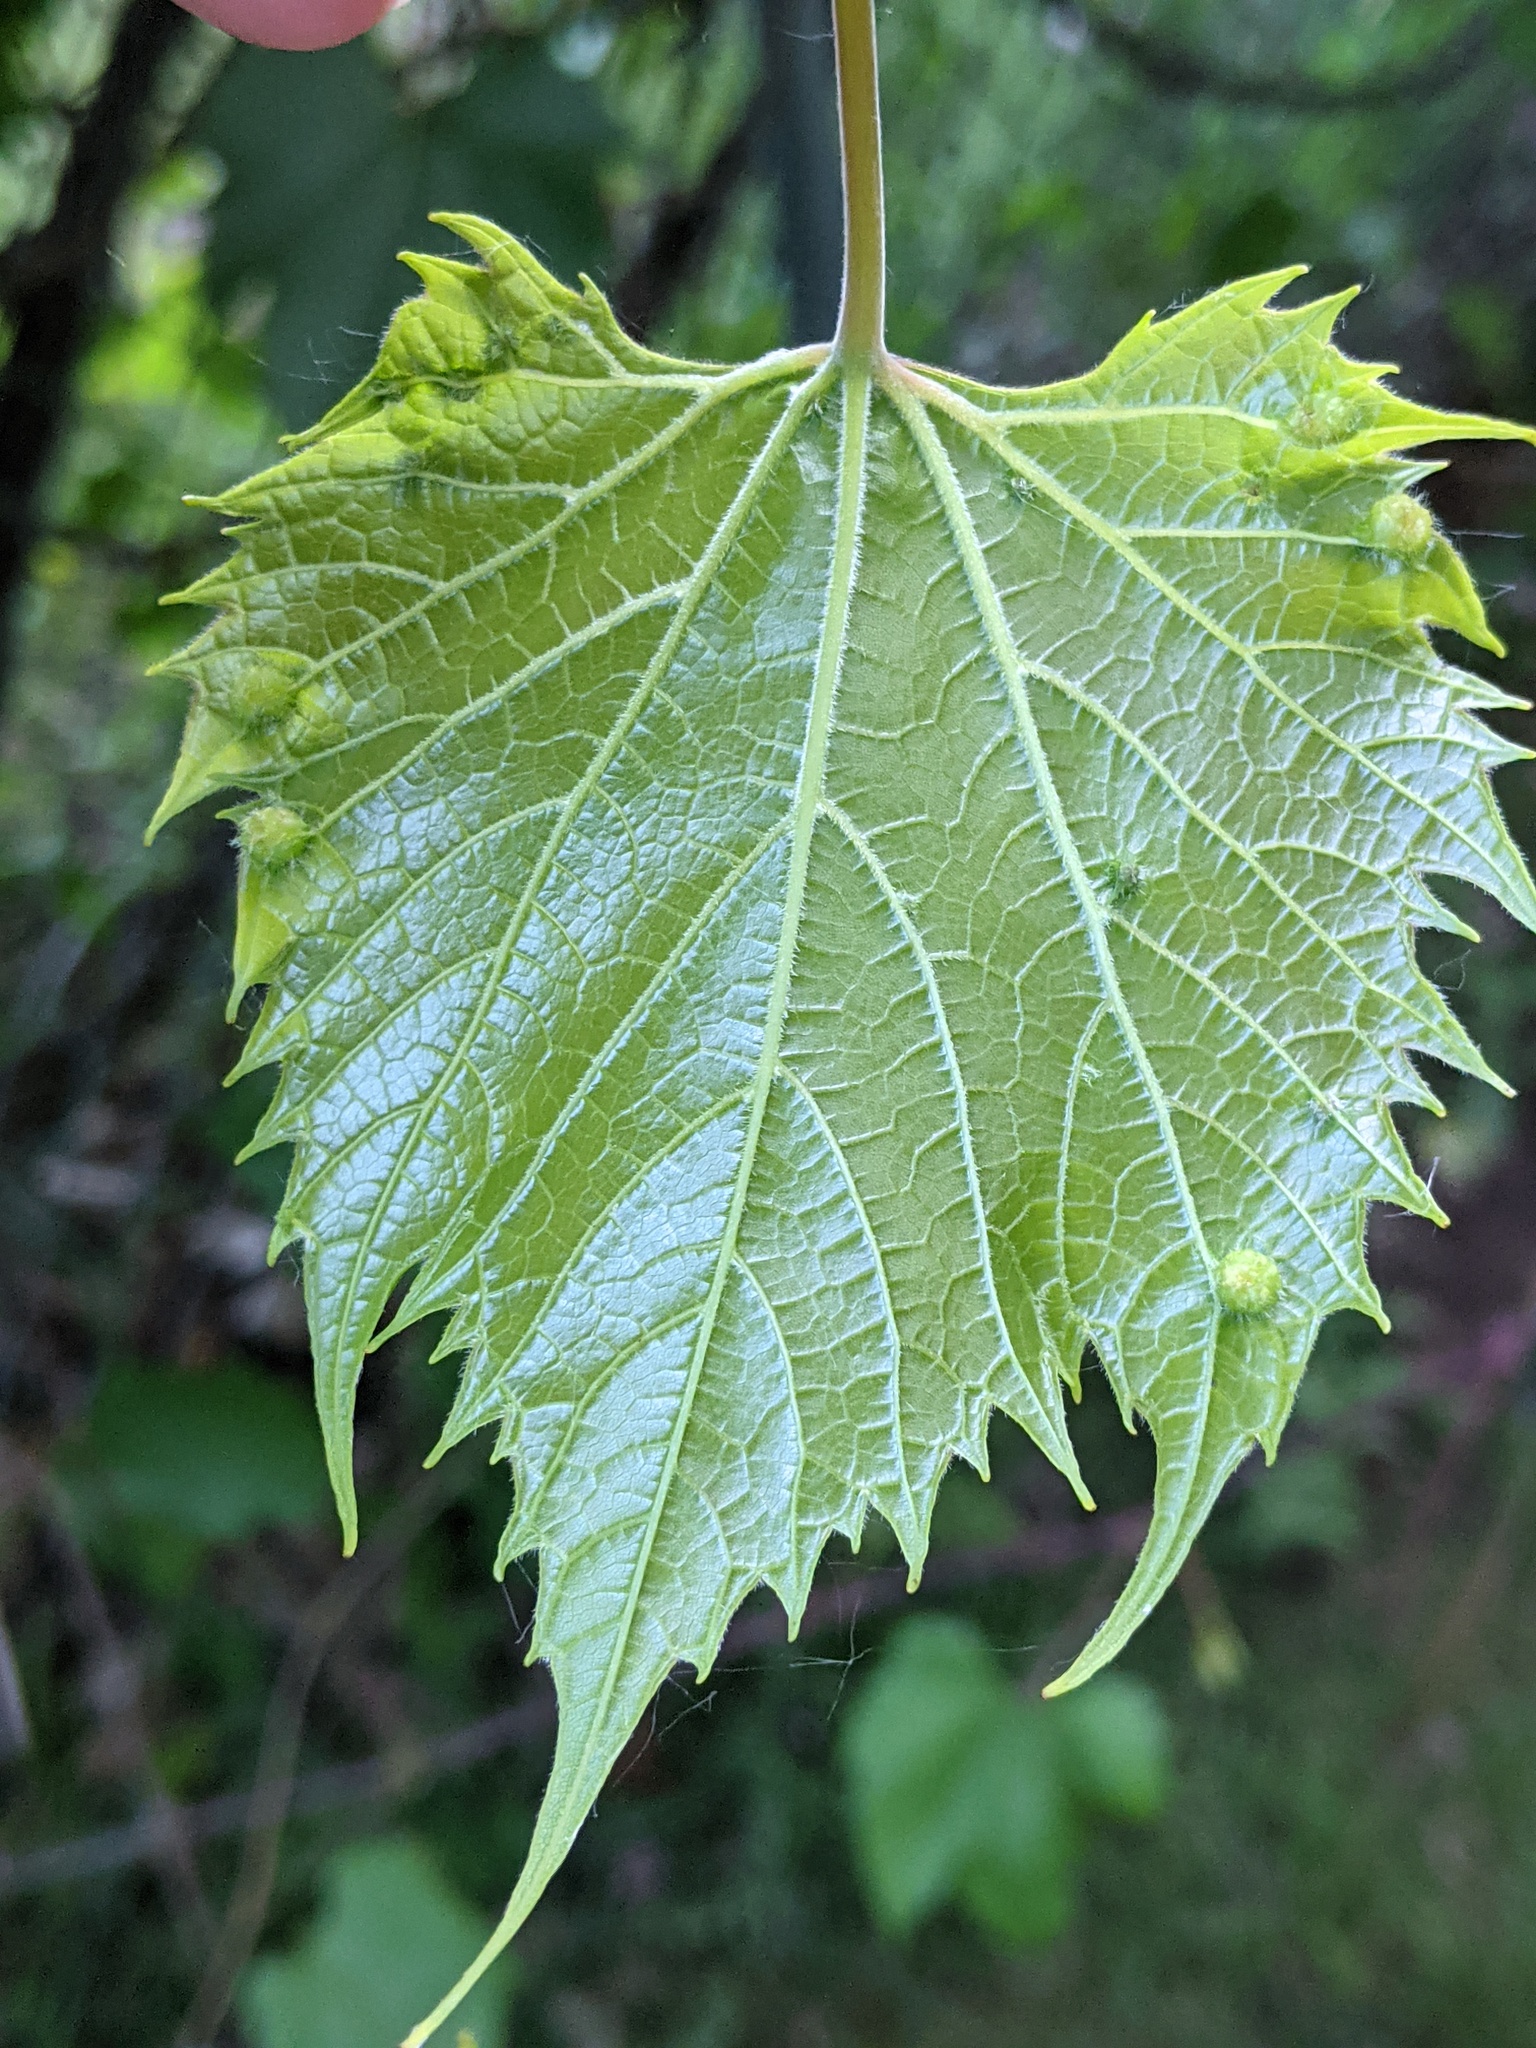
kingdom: Animalia
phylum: Arthropoda
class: Insecta
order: Hemiptera
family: Phylloxeridae
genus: Daktulosphaira
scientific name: Daktulosphaira vitifoliae
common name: Grape phylloxera
